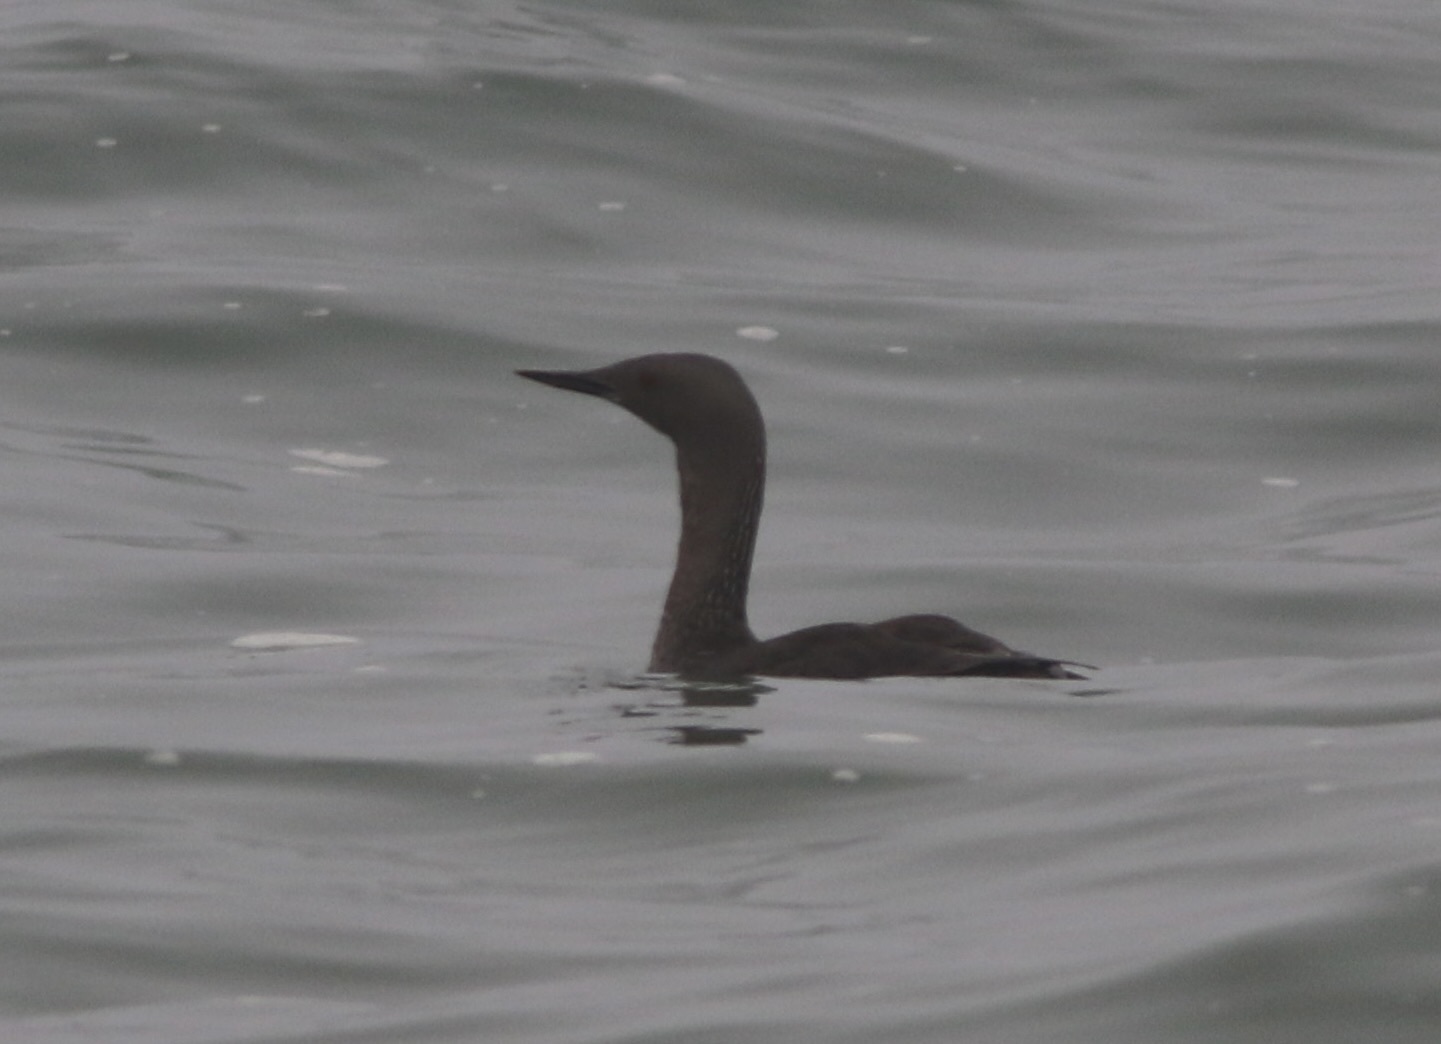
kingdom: Animalia
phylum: Chordata
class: Aves
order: Gaviiformes
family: Gaviidae
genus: Gavia
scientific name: Gavia stellata
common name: Red-throated loon
